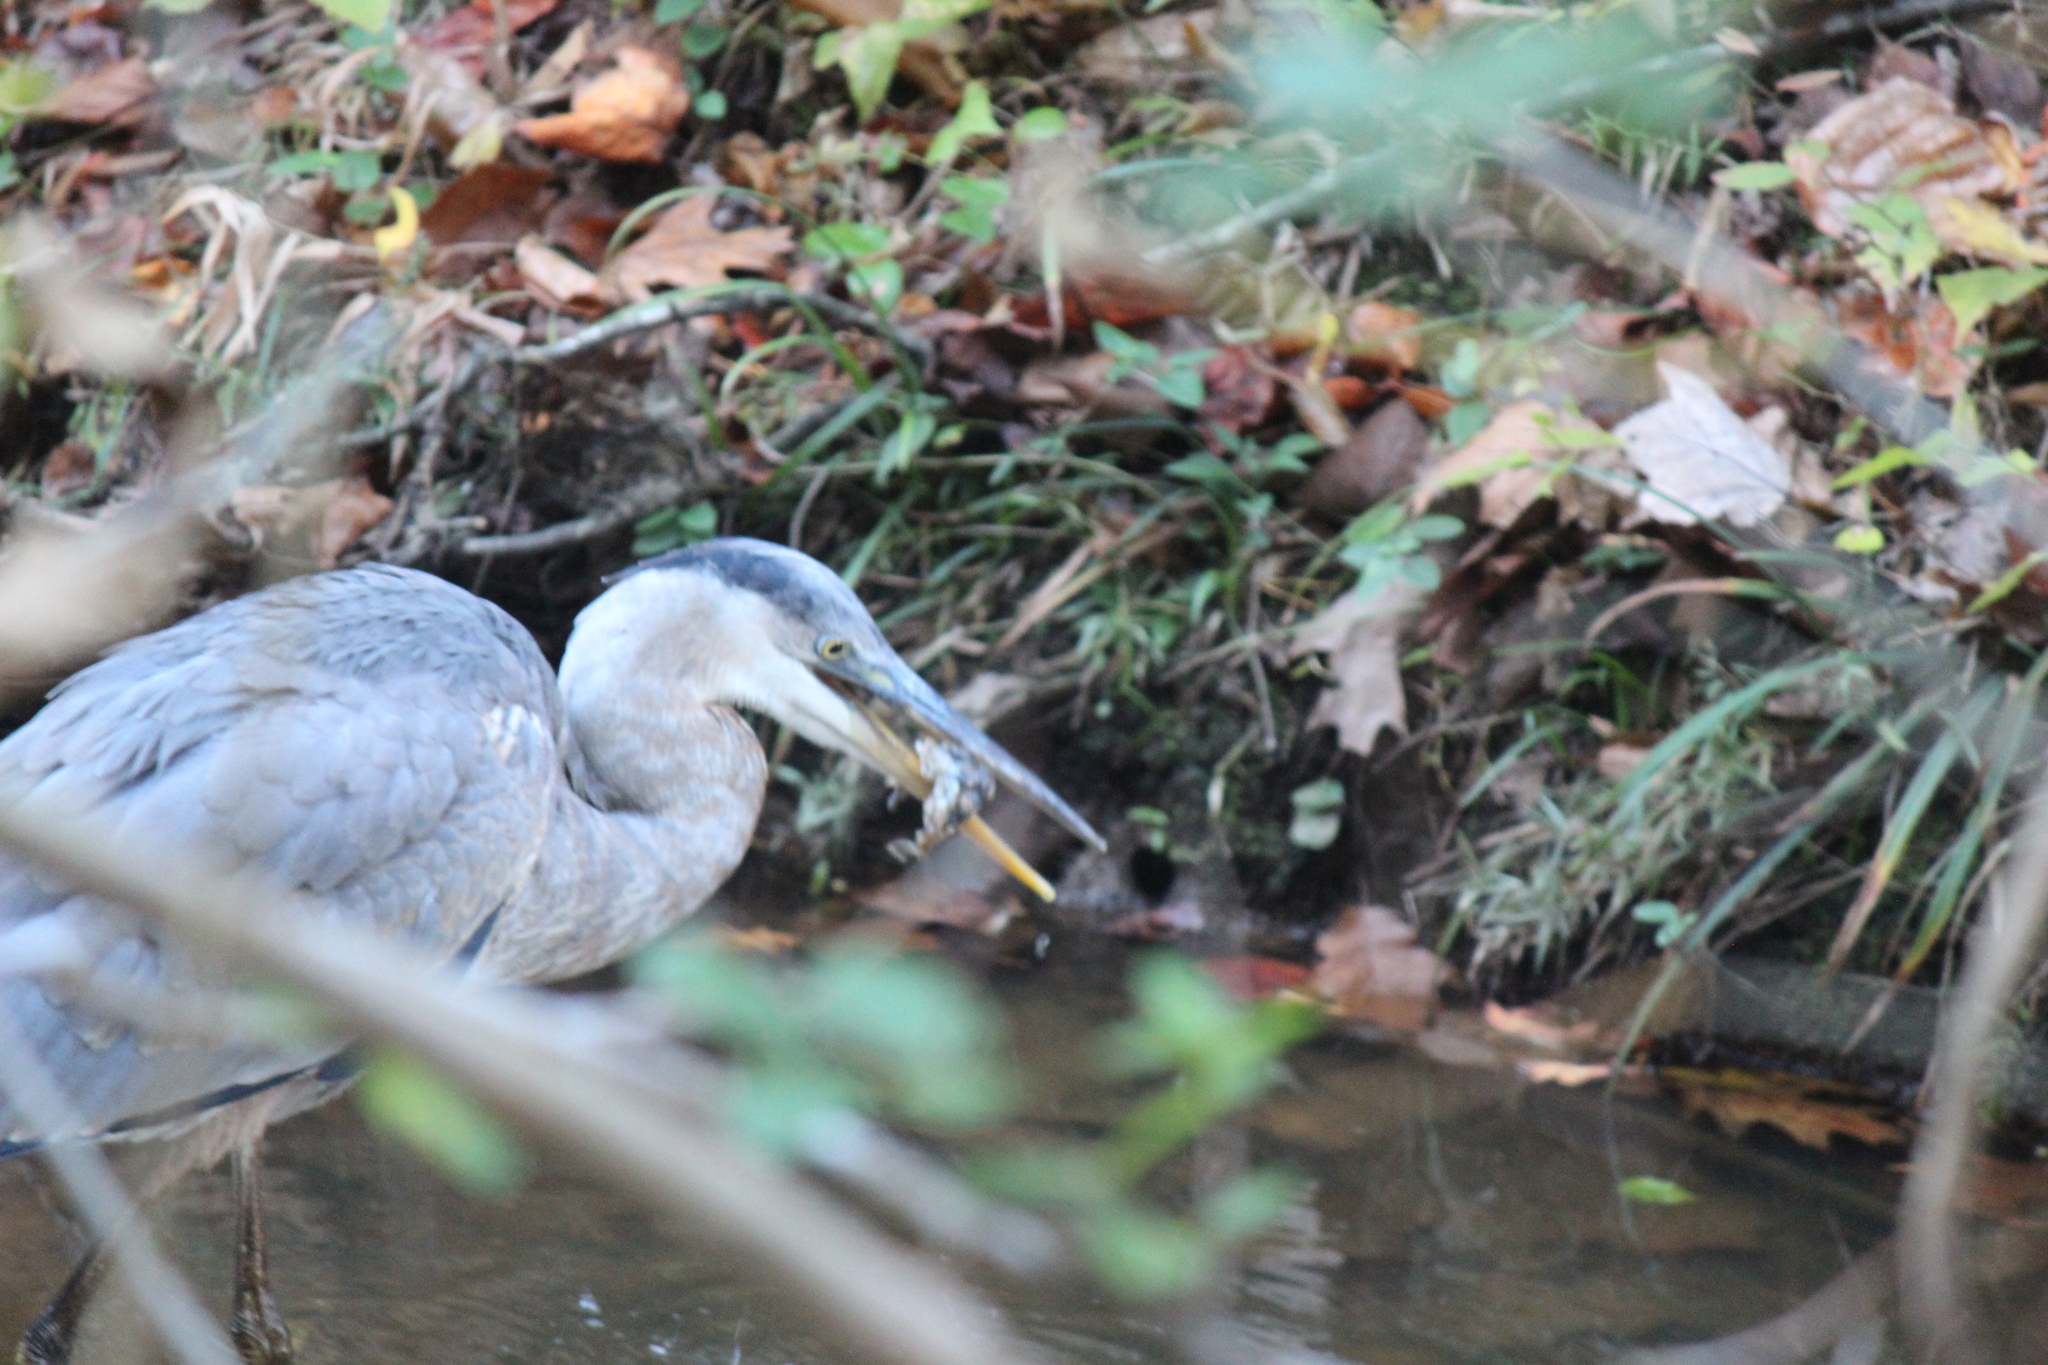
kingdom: Animalia
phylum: Chordata
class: Aves
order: Pelecaniformes
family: Ardeidae
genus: Ardea
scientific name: Ardea herodias
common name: Great blue heron
